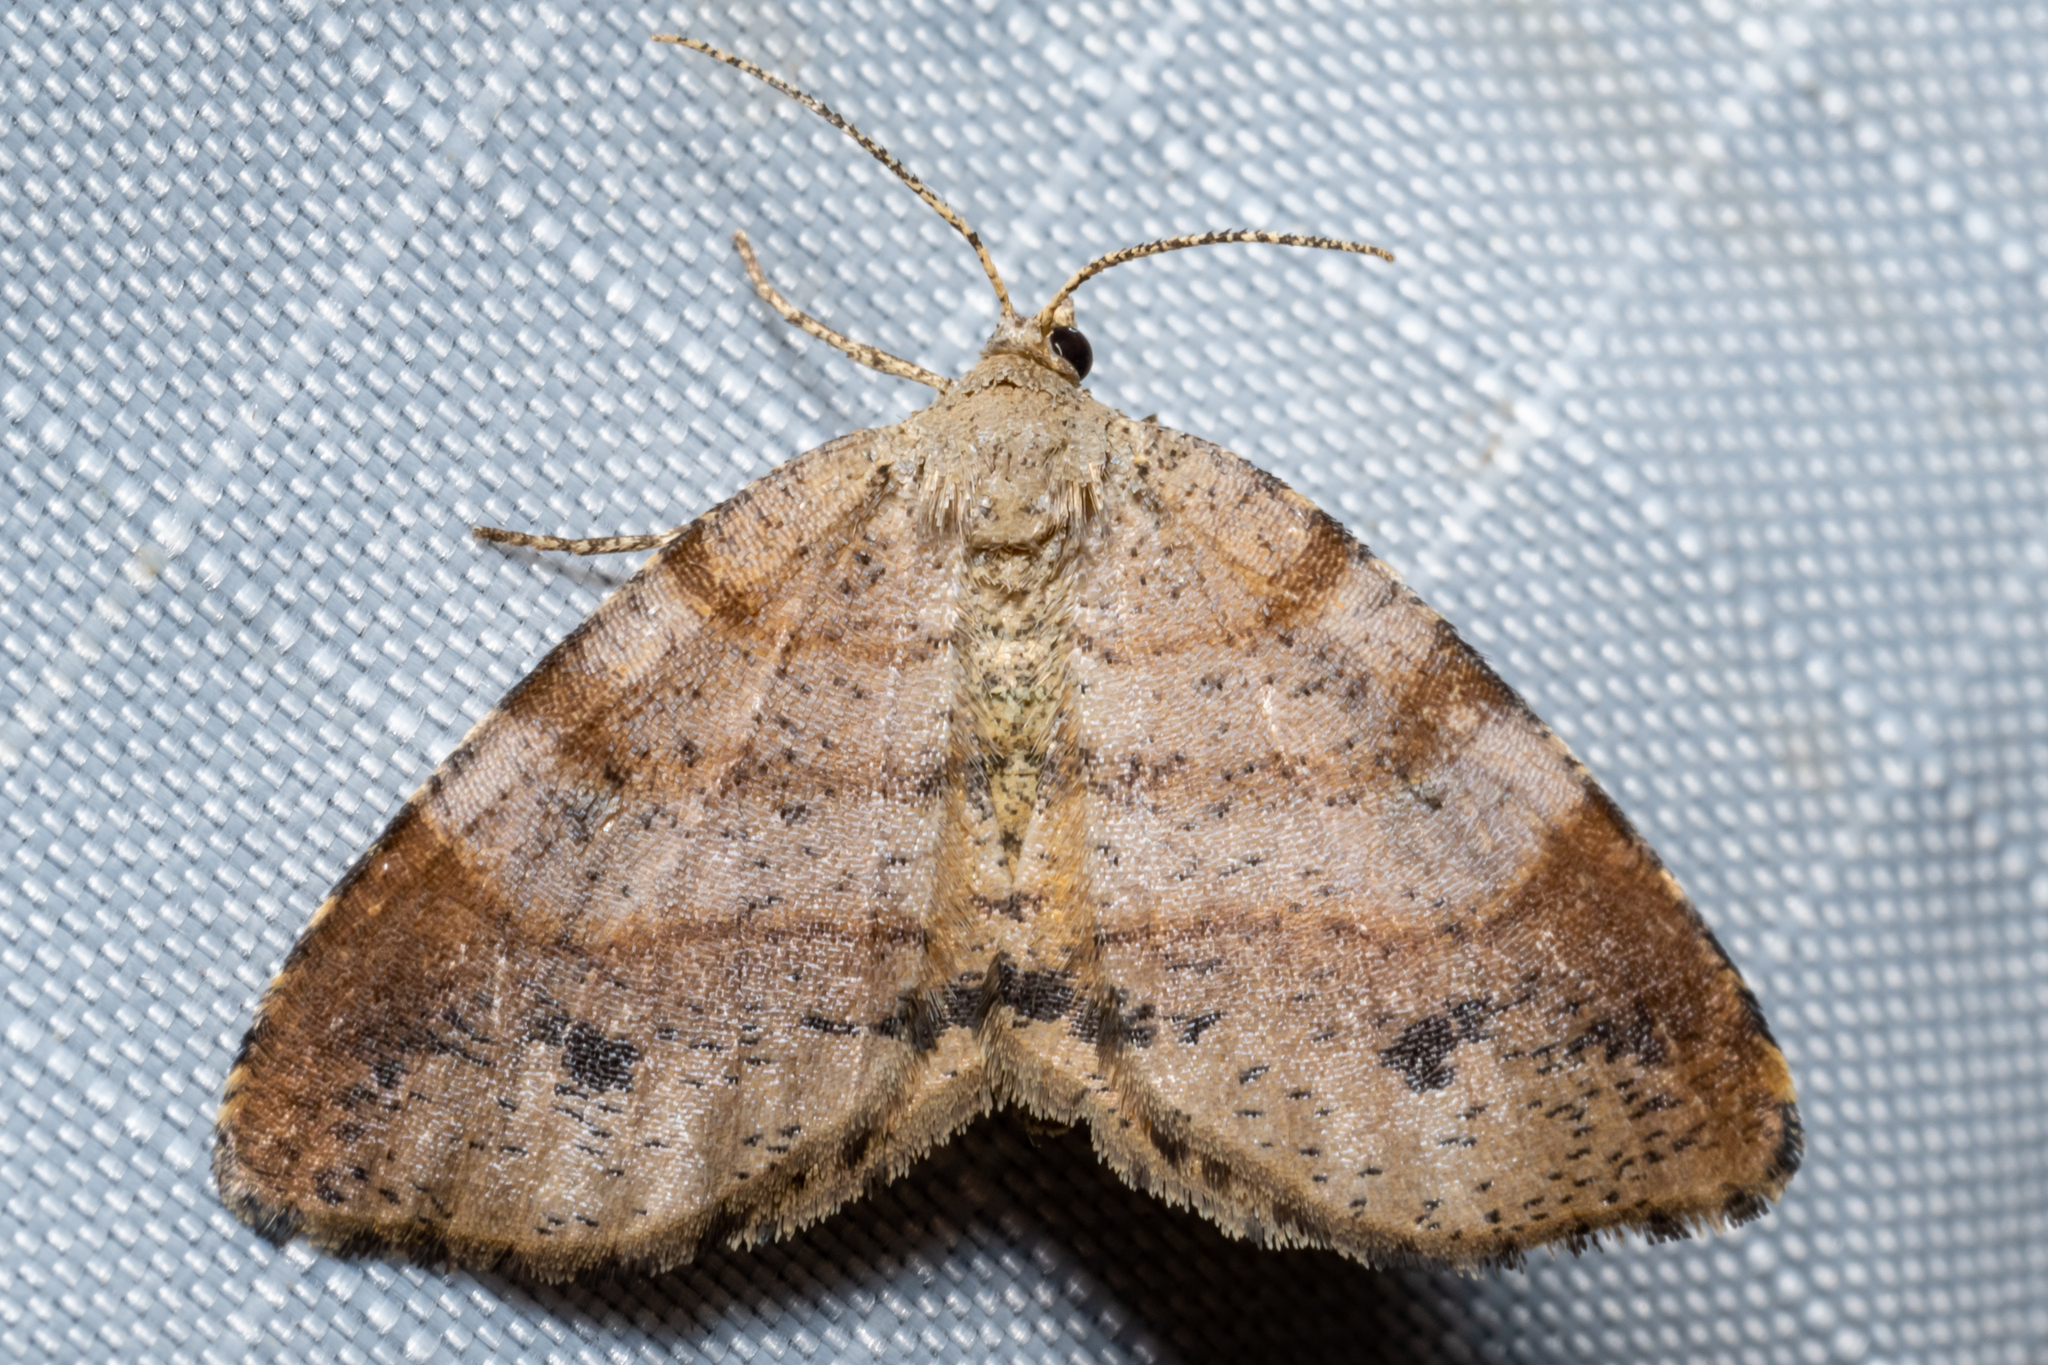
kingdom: Animalia
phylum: Arthropoda
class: Insecta
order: Lepidoptera
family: Geometridae
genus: Mellilla
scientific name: Mellilla xanthometata
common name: Orange wing moth
